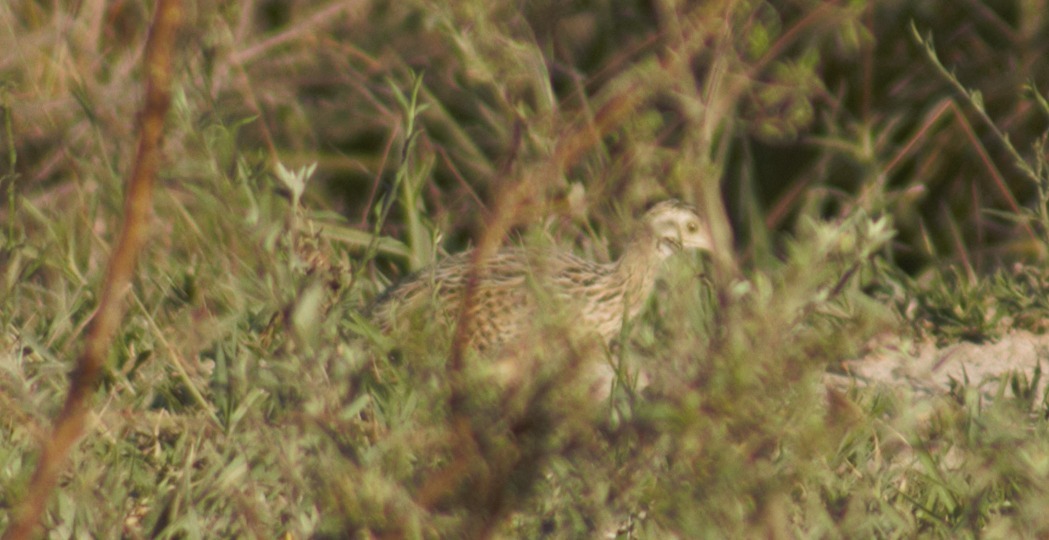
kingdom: Animalia
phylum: Chordata
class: Aves
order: Tinamiformes
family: Tinamidae
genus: Nothura
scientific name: Nothura maculosa
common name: Spotted nothura
